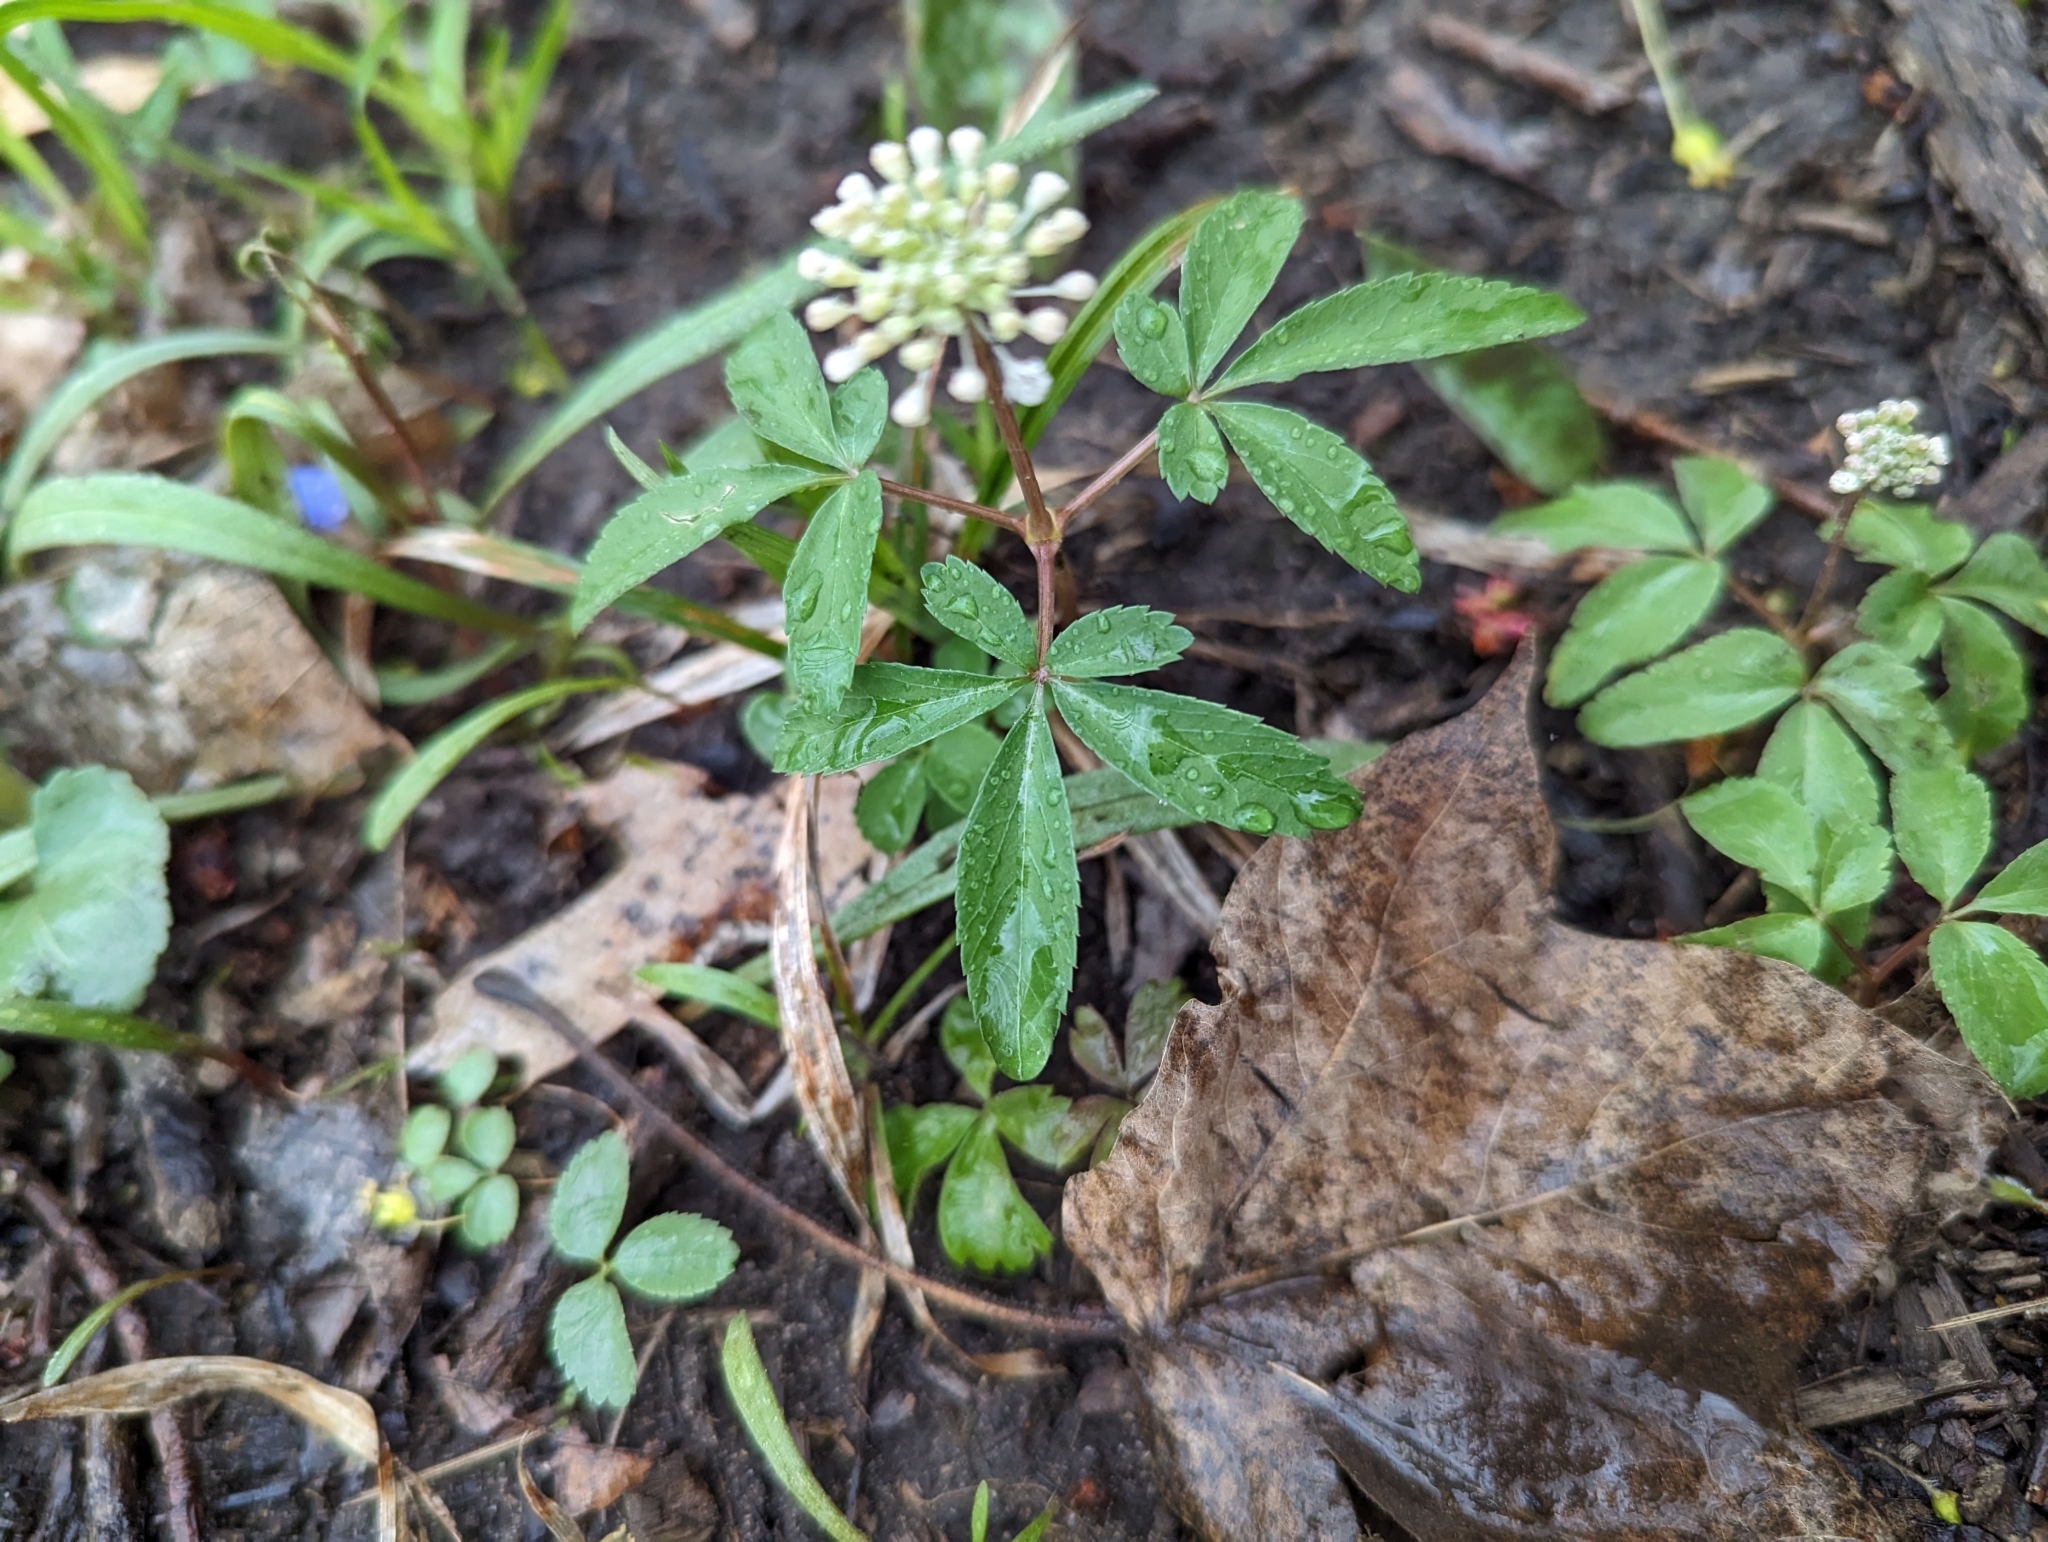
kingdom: Plantae
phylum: Tracheophyta
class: Magnoliopsida
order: Apiales
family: Araliaceae
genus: Panax
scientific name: Panax trifolius
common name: Dwarf ginseng
